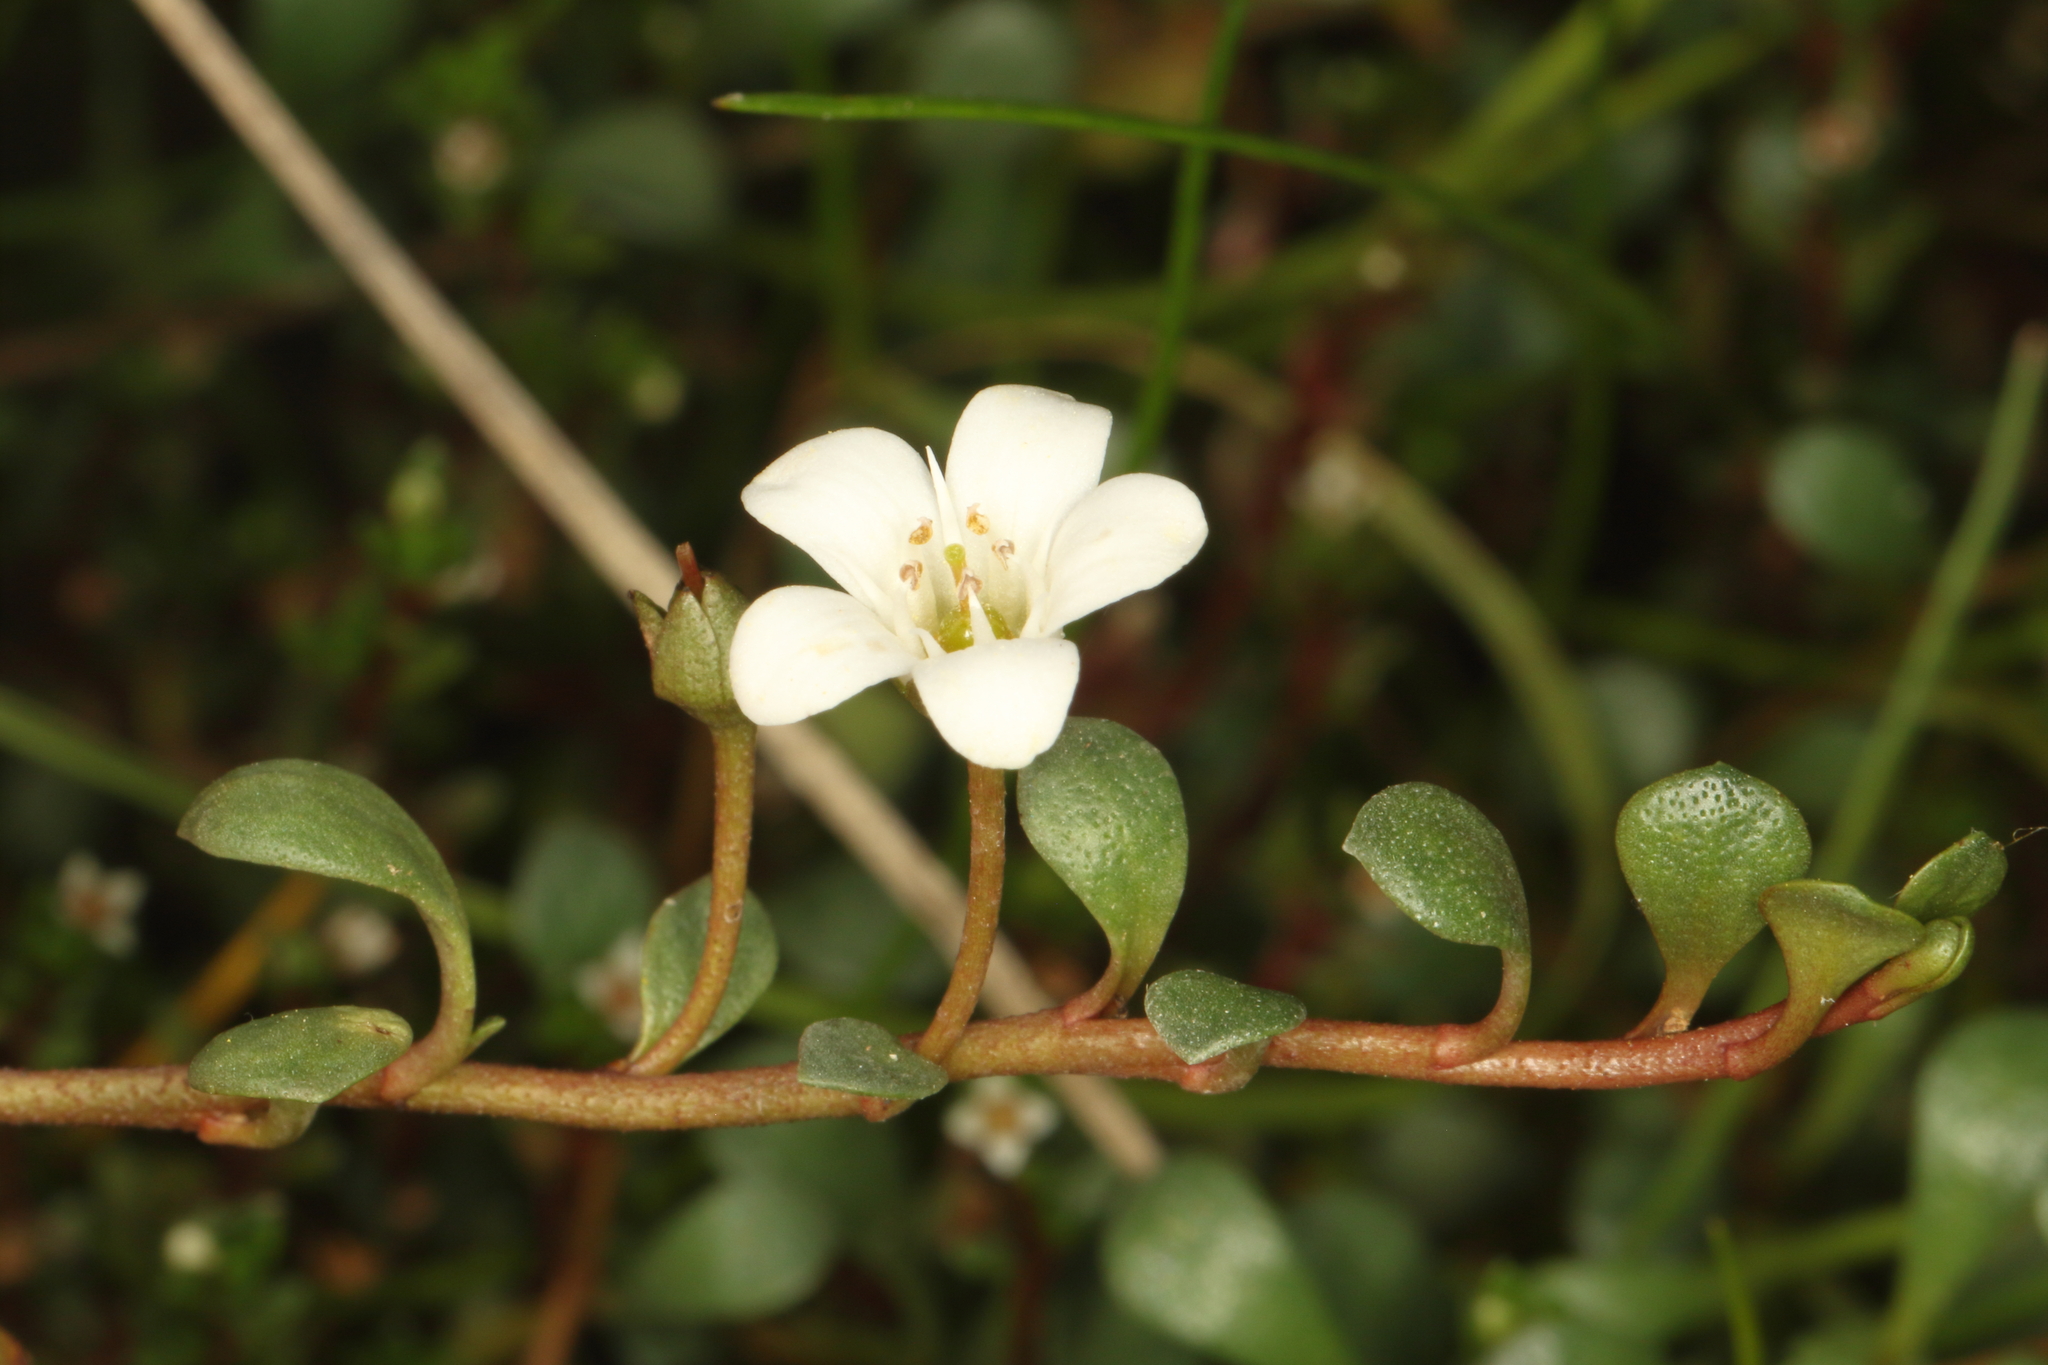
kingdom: Plantae
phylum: Tracheophyta
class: Magnoliopsida
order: Ericales
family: Primulaceae
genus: Samolus
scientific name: Samolus repens
